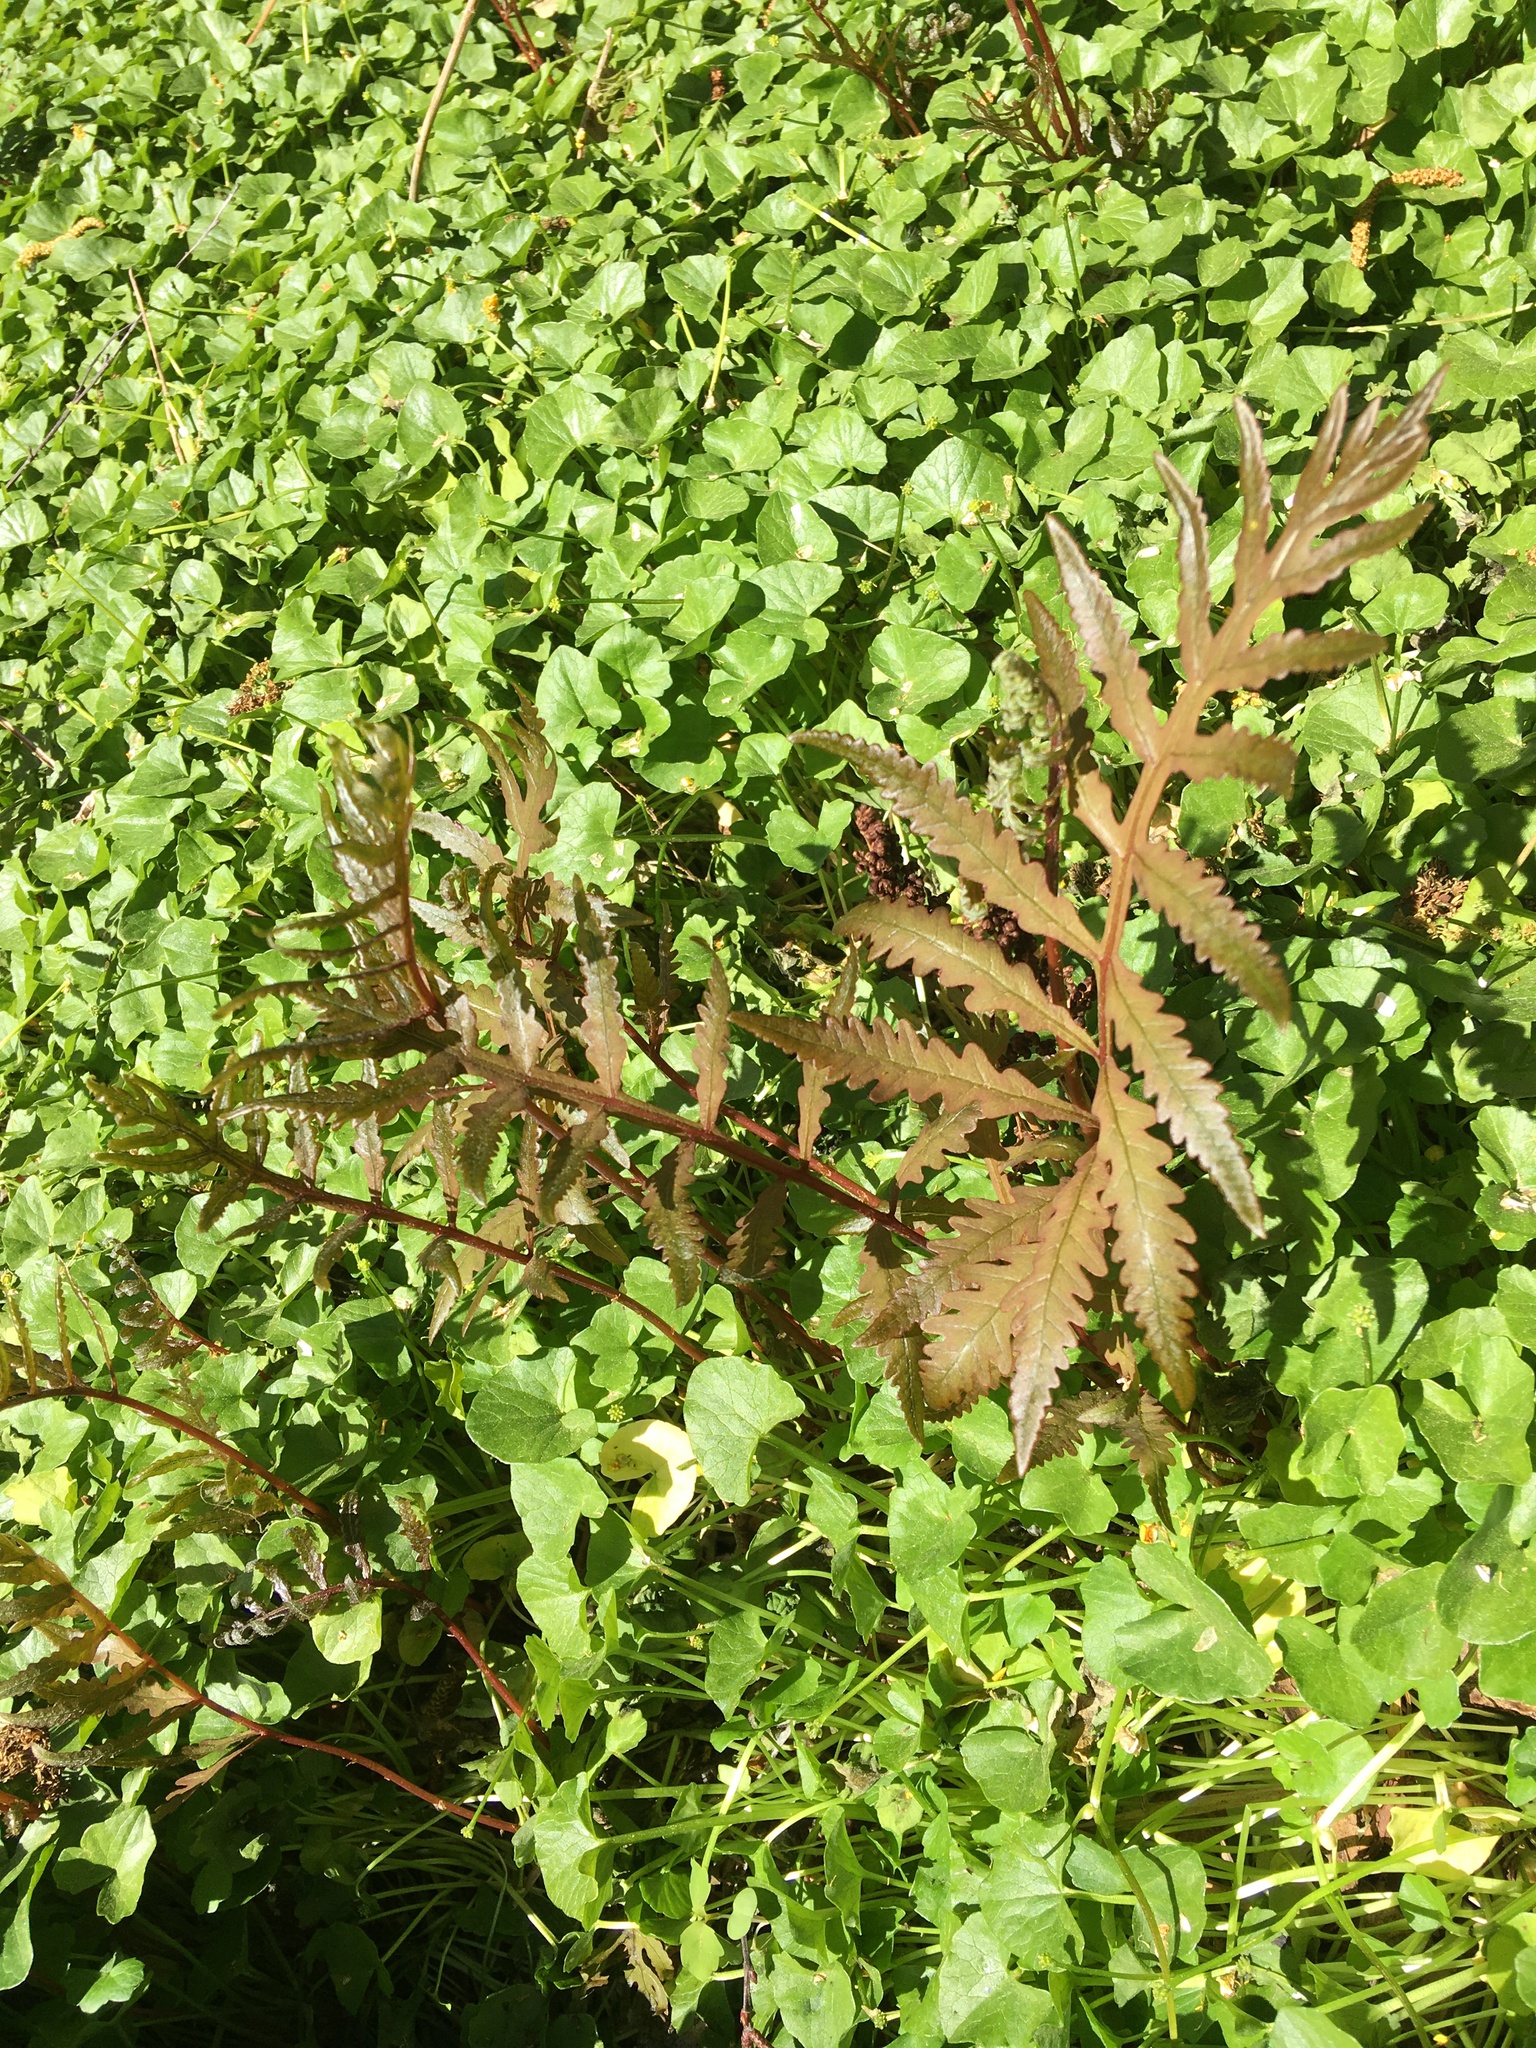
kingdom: Plantae
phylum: Tracheophyta
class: Polypodiopsida
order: Polypodiales
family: Onocleaceae
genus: Onoclea
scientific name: Onoclea sensibilis
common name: Sensitive fern
